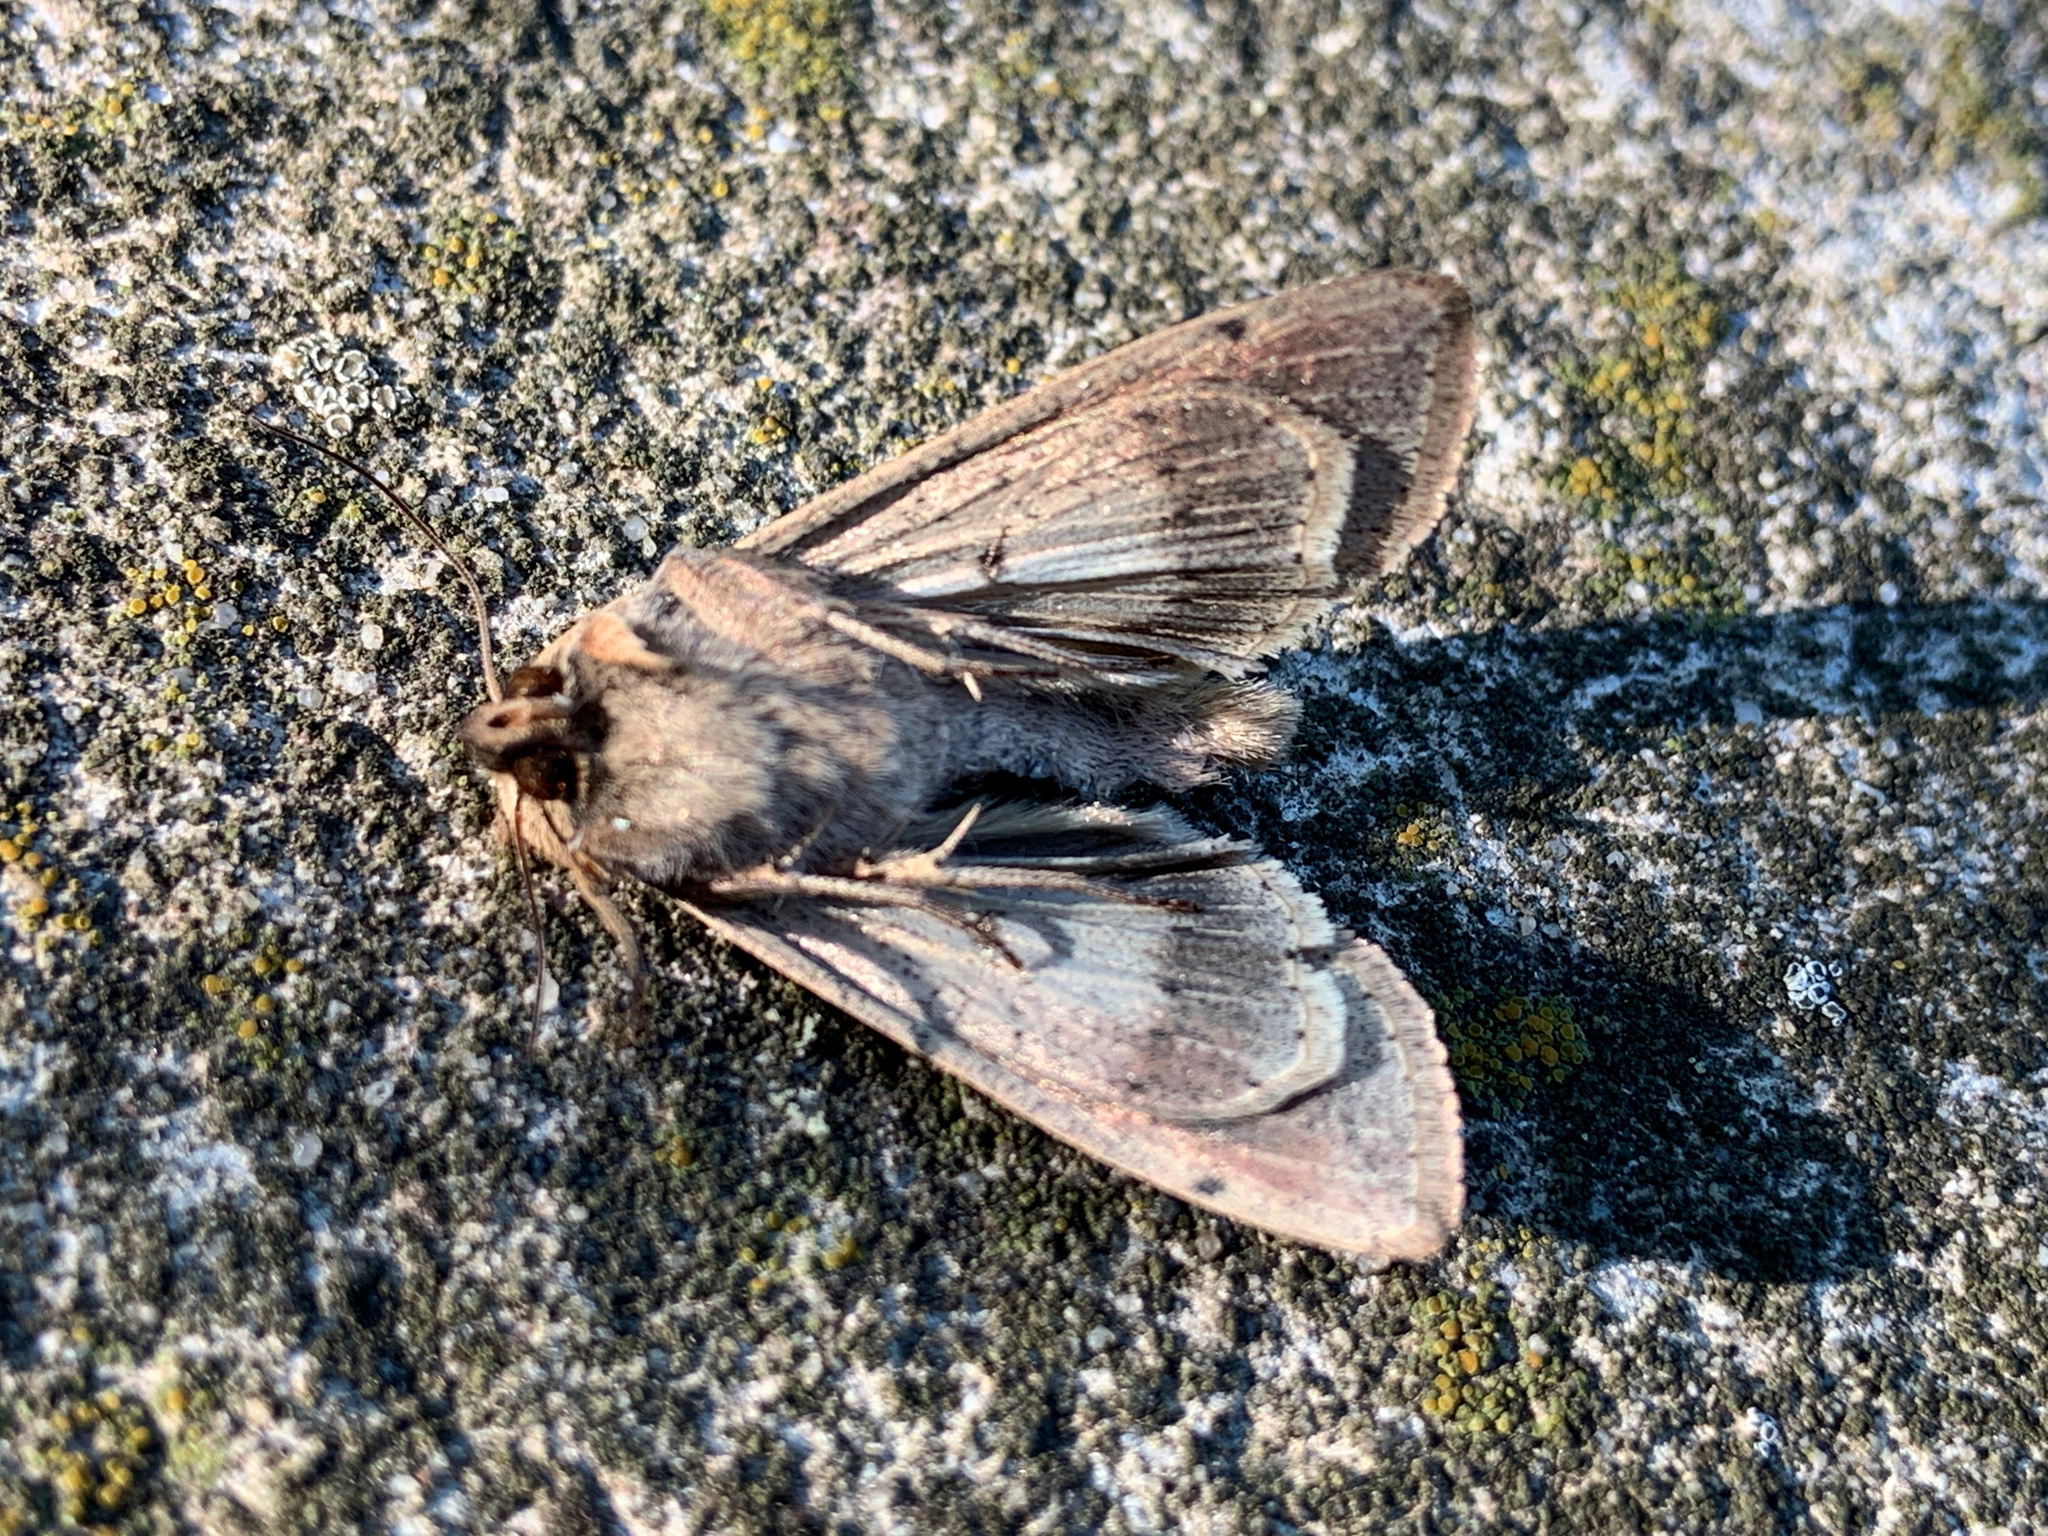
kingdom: Animalia
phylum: Arthropoda
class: Insecta
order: Lepidoptera
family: Noctuidae
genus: Mythimna
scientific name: Mythimna unipuncta
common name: White-speck
